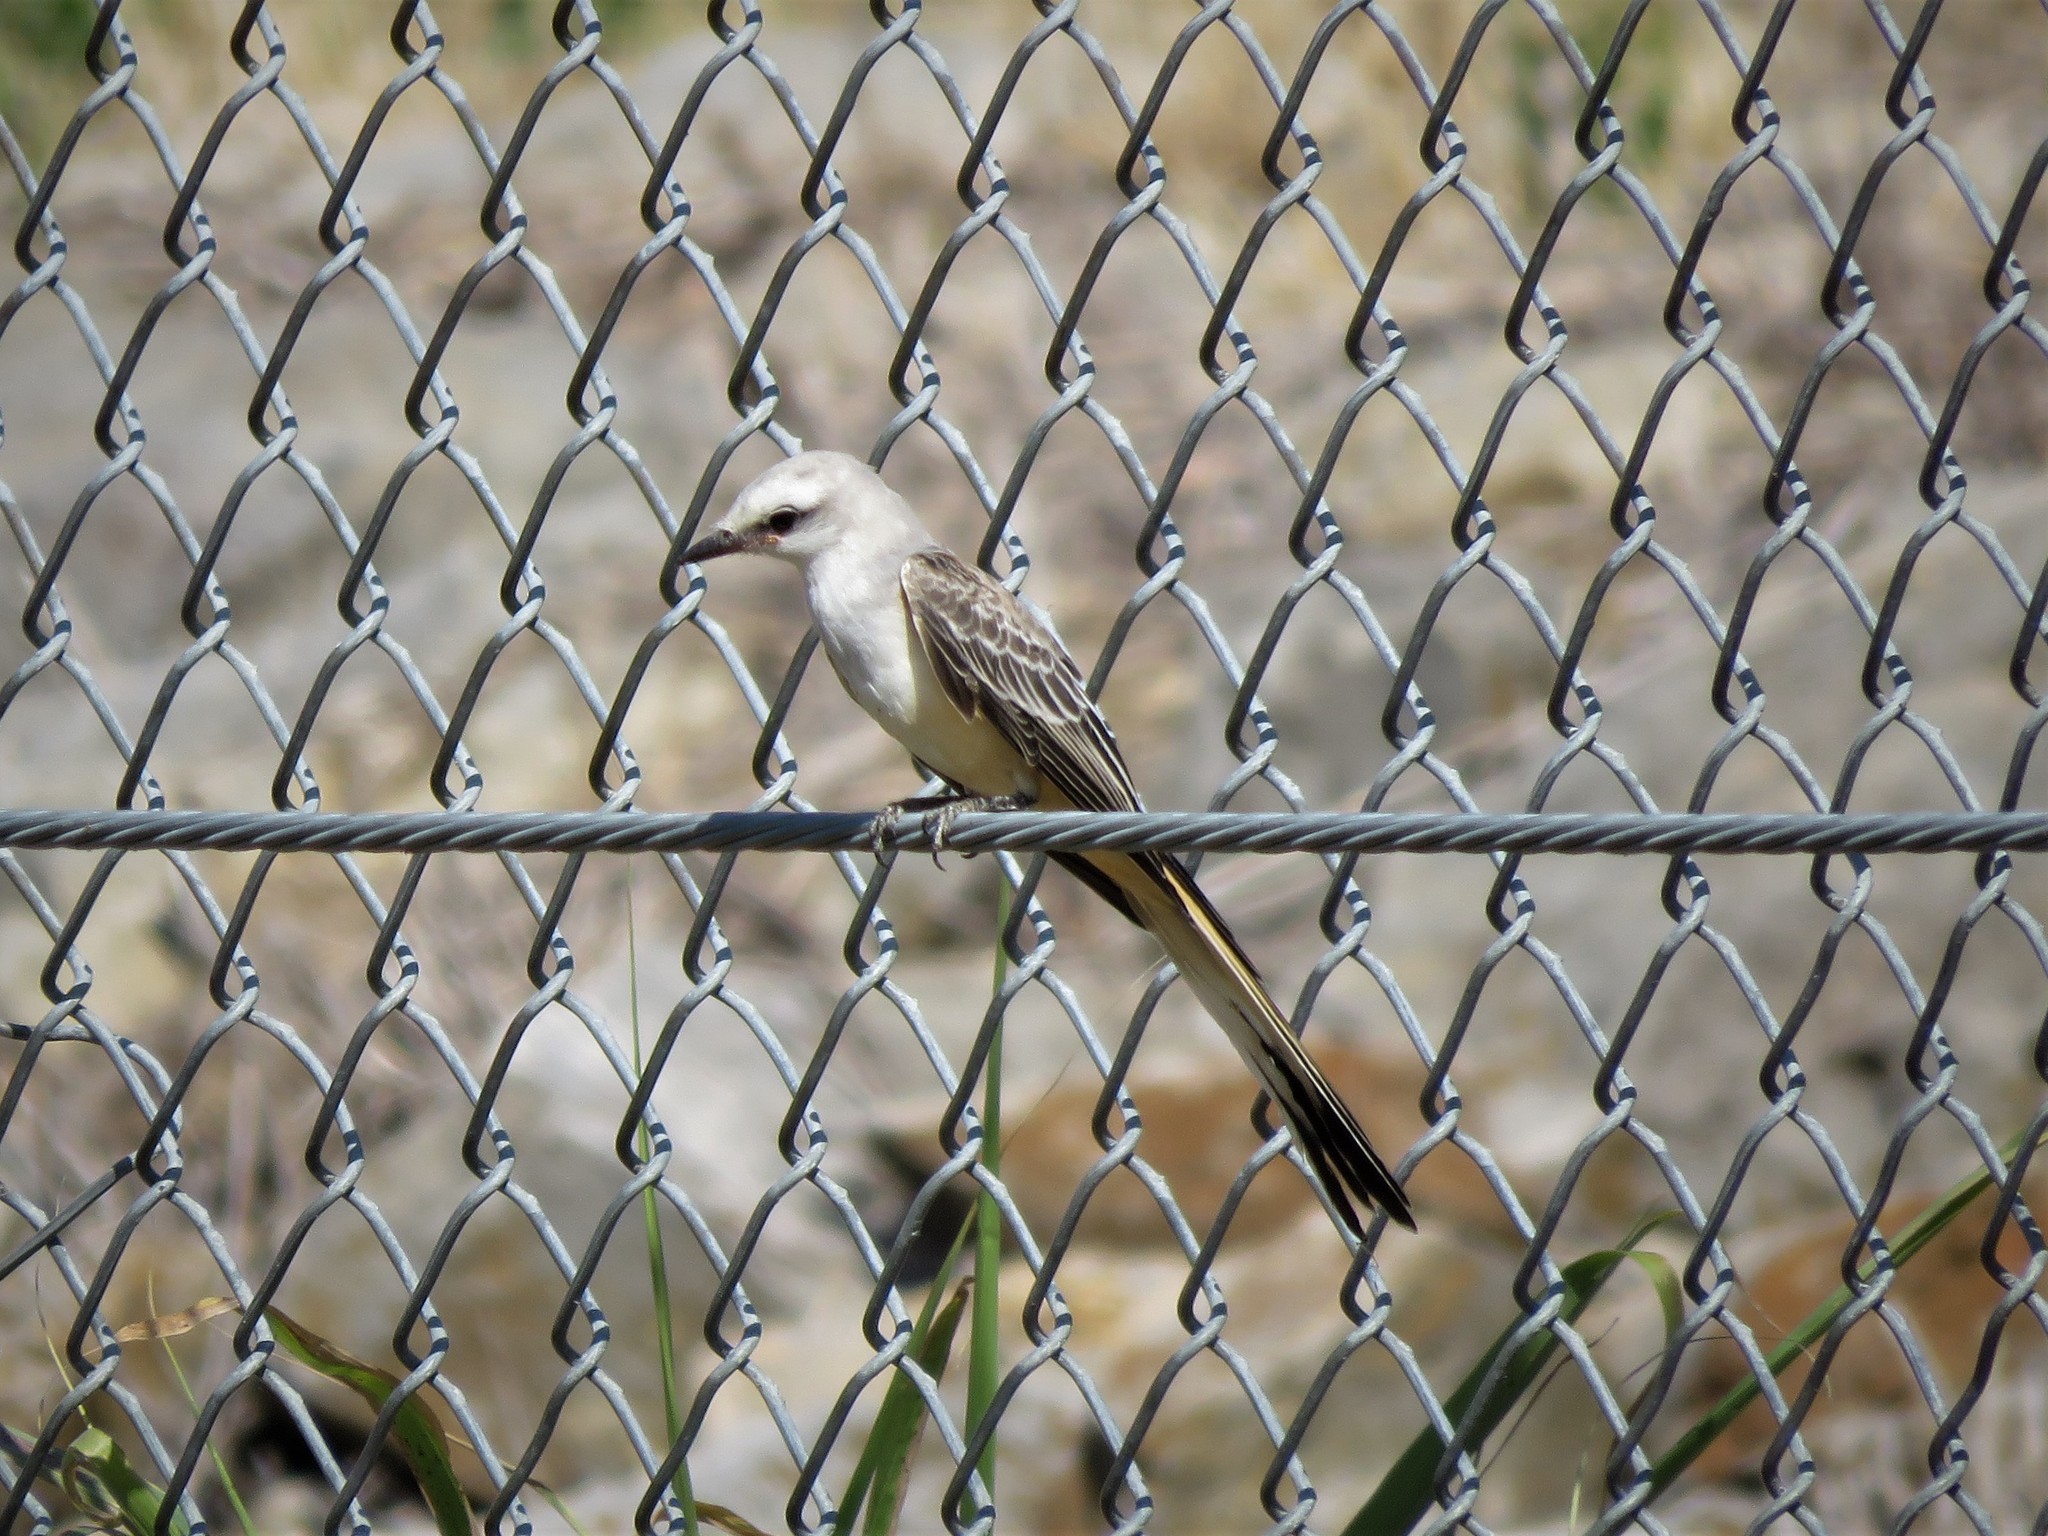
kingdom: Animalia
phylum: Chordata
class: Aves
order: Passeriformes
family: Tyrannidae
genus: Tyrannus
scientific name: Tyrannus forficatus
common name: Scissor-tailed flycatcher
